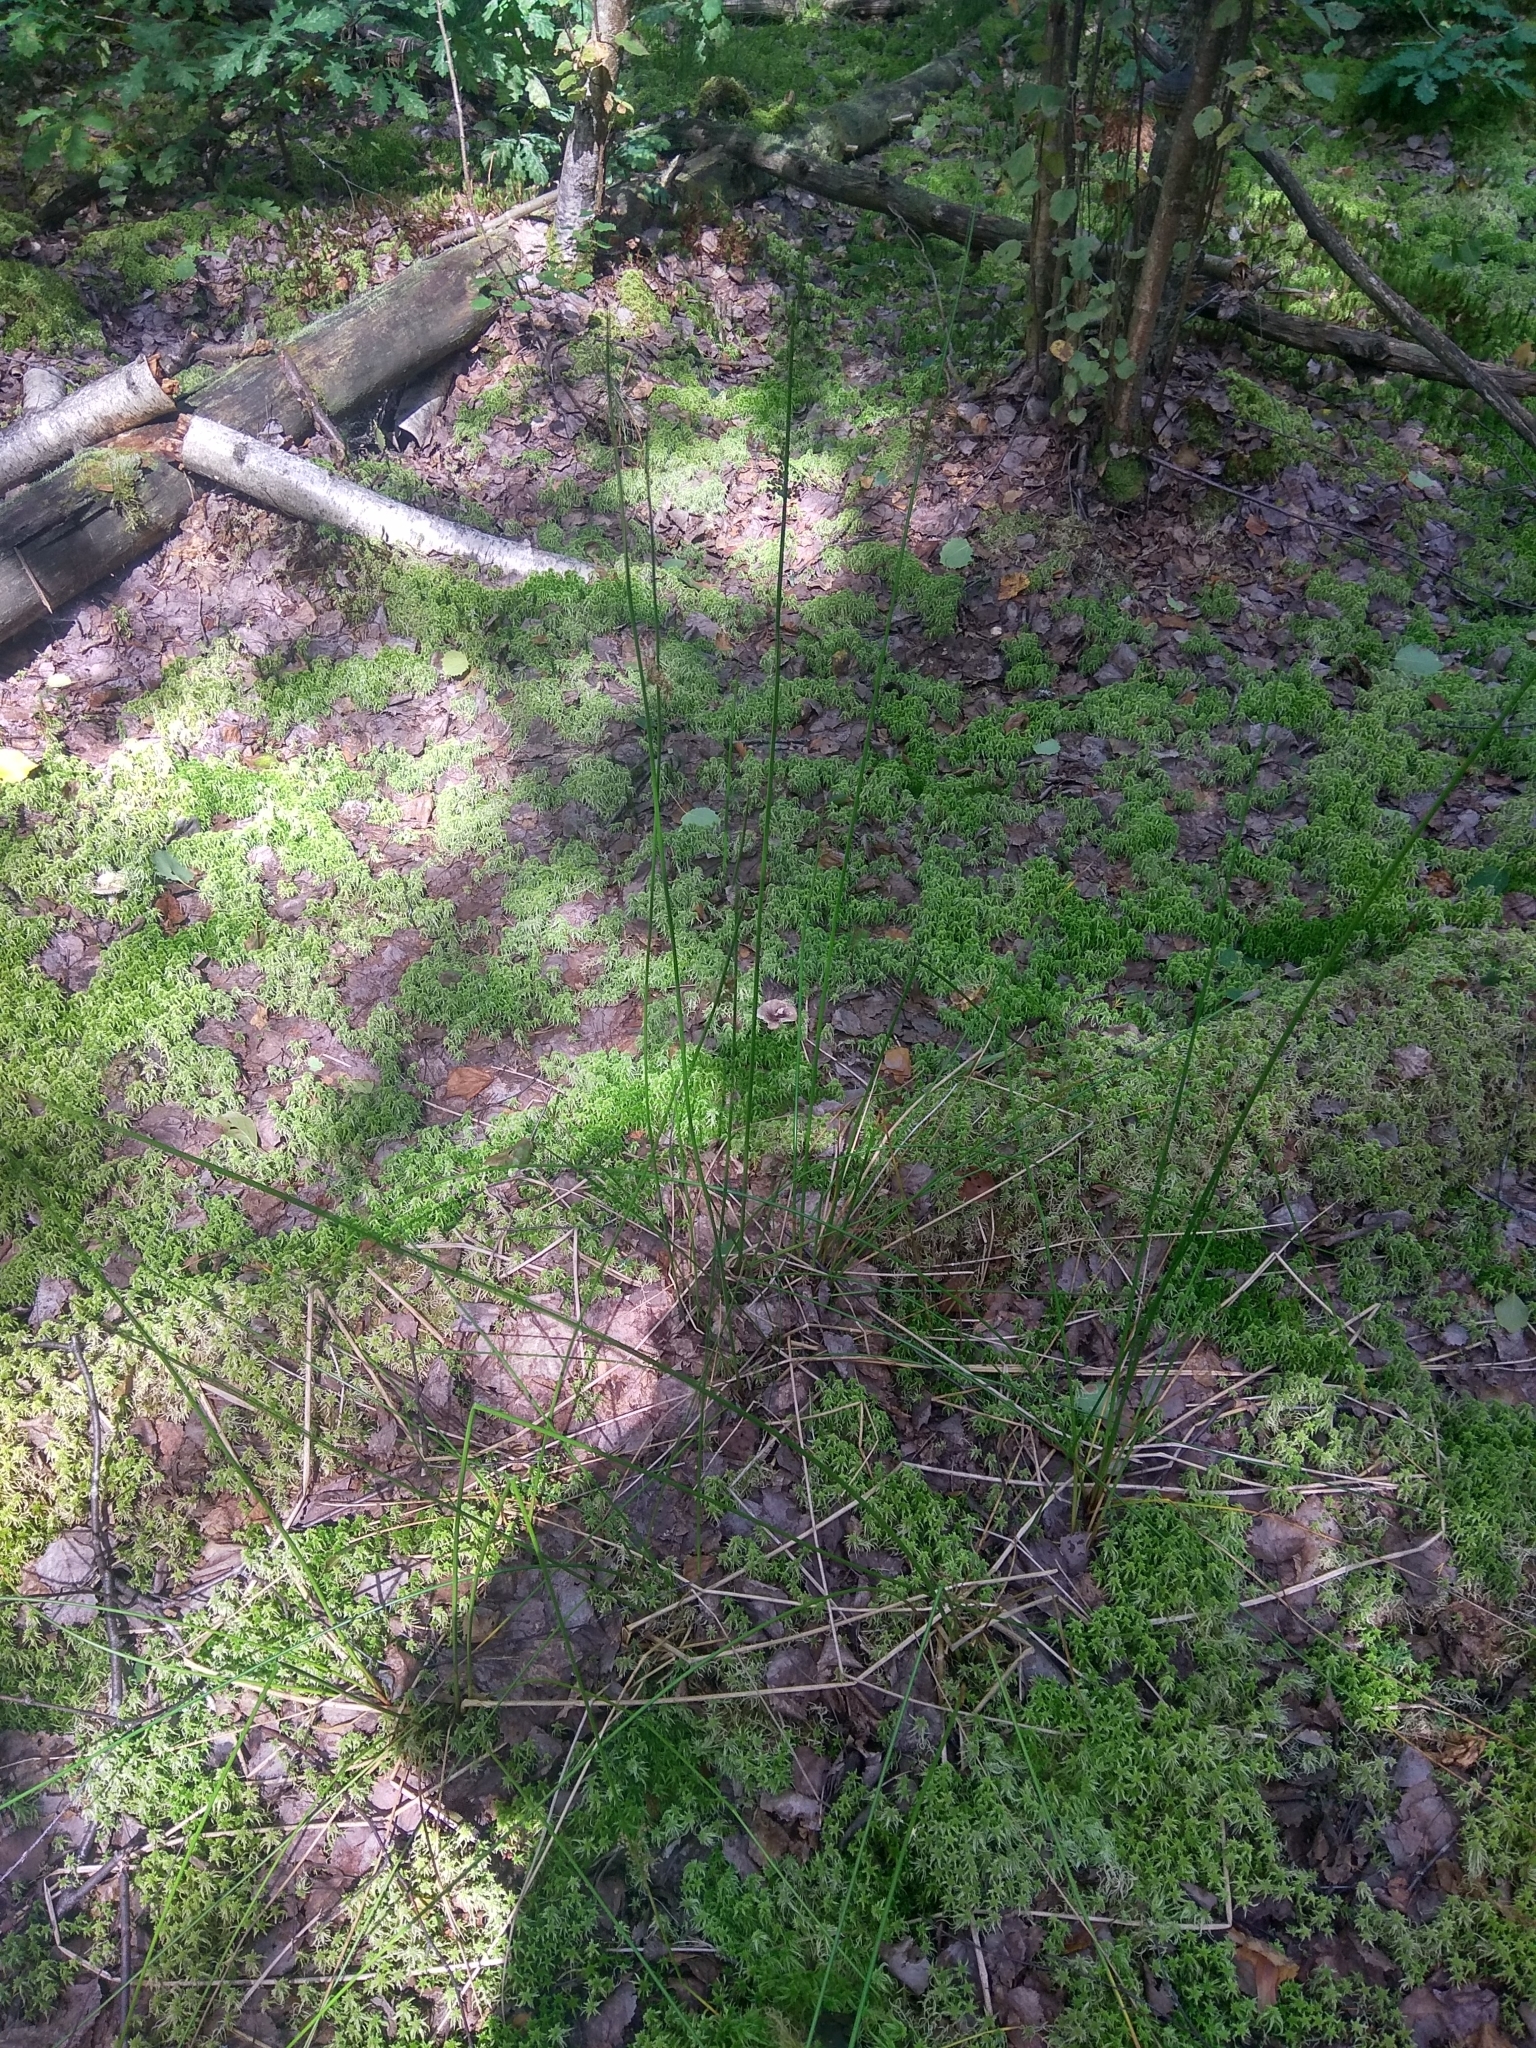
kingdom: Plantae
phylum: Tracheophyta
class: Liliopsida
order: Poales
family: Juncaceae
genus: Juncus
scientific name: Juncus effusus
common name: Soft rush
